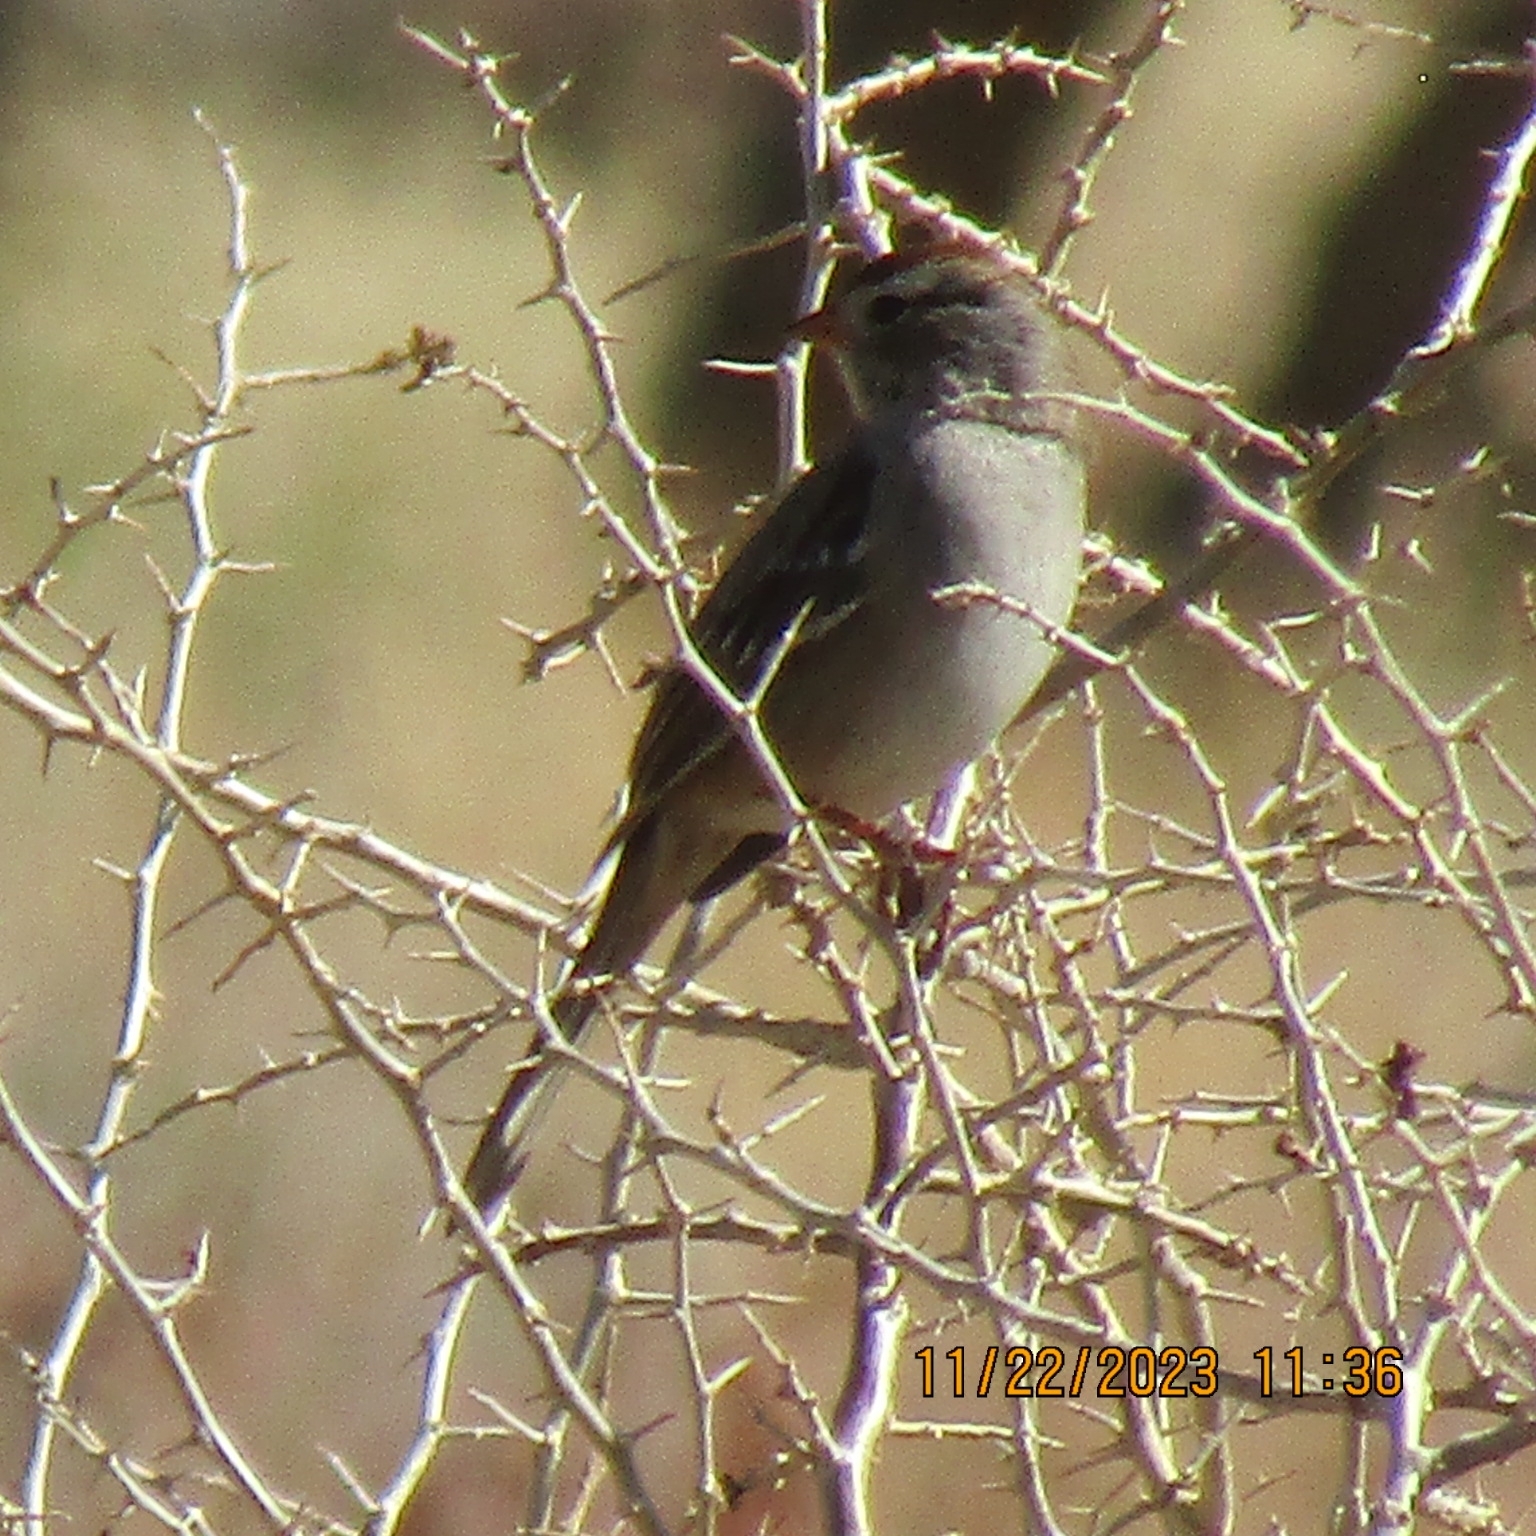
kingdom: Animalia
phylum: Chordata
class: Aves
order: Passeriformes
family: Passerellidae
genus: Zonotrichia
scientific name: Zonotrichia leucophrys
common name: White-crowned sparrow
